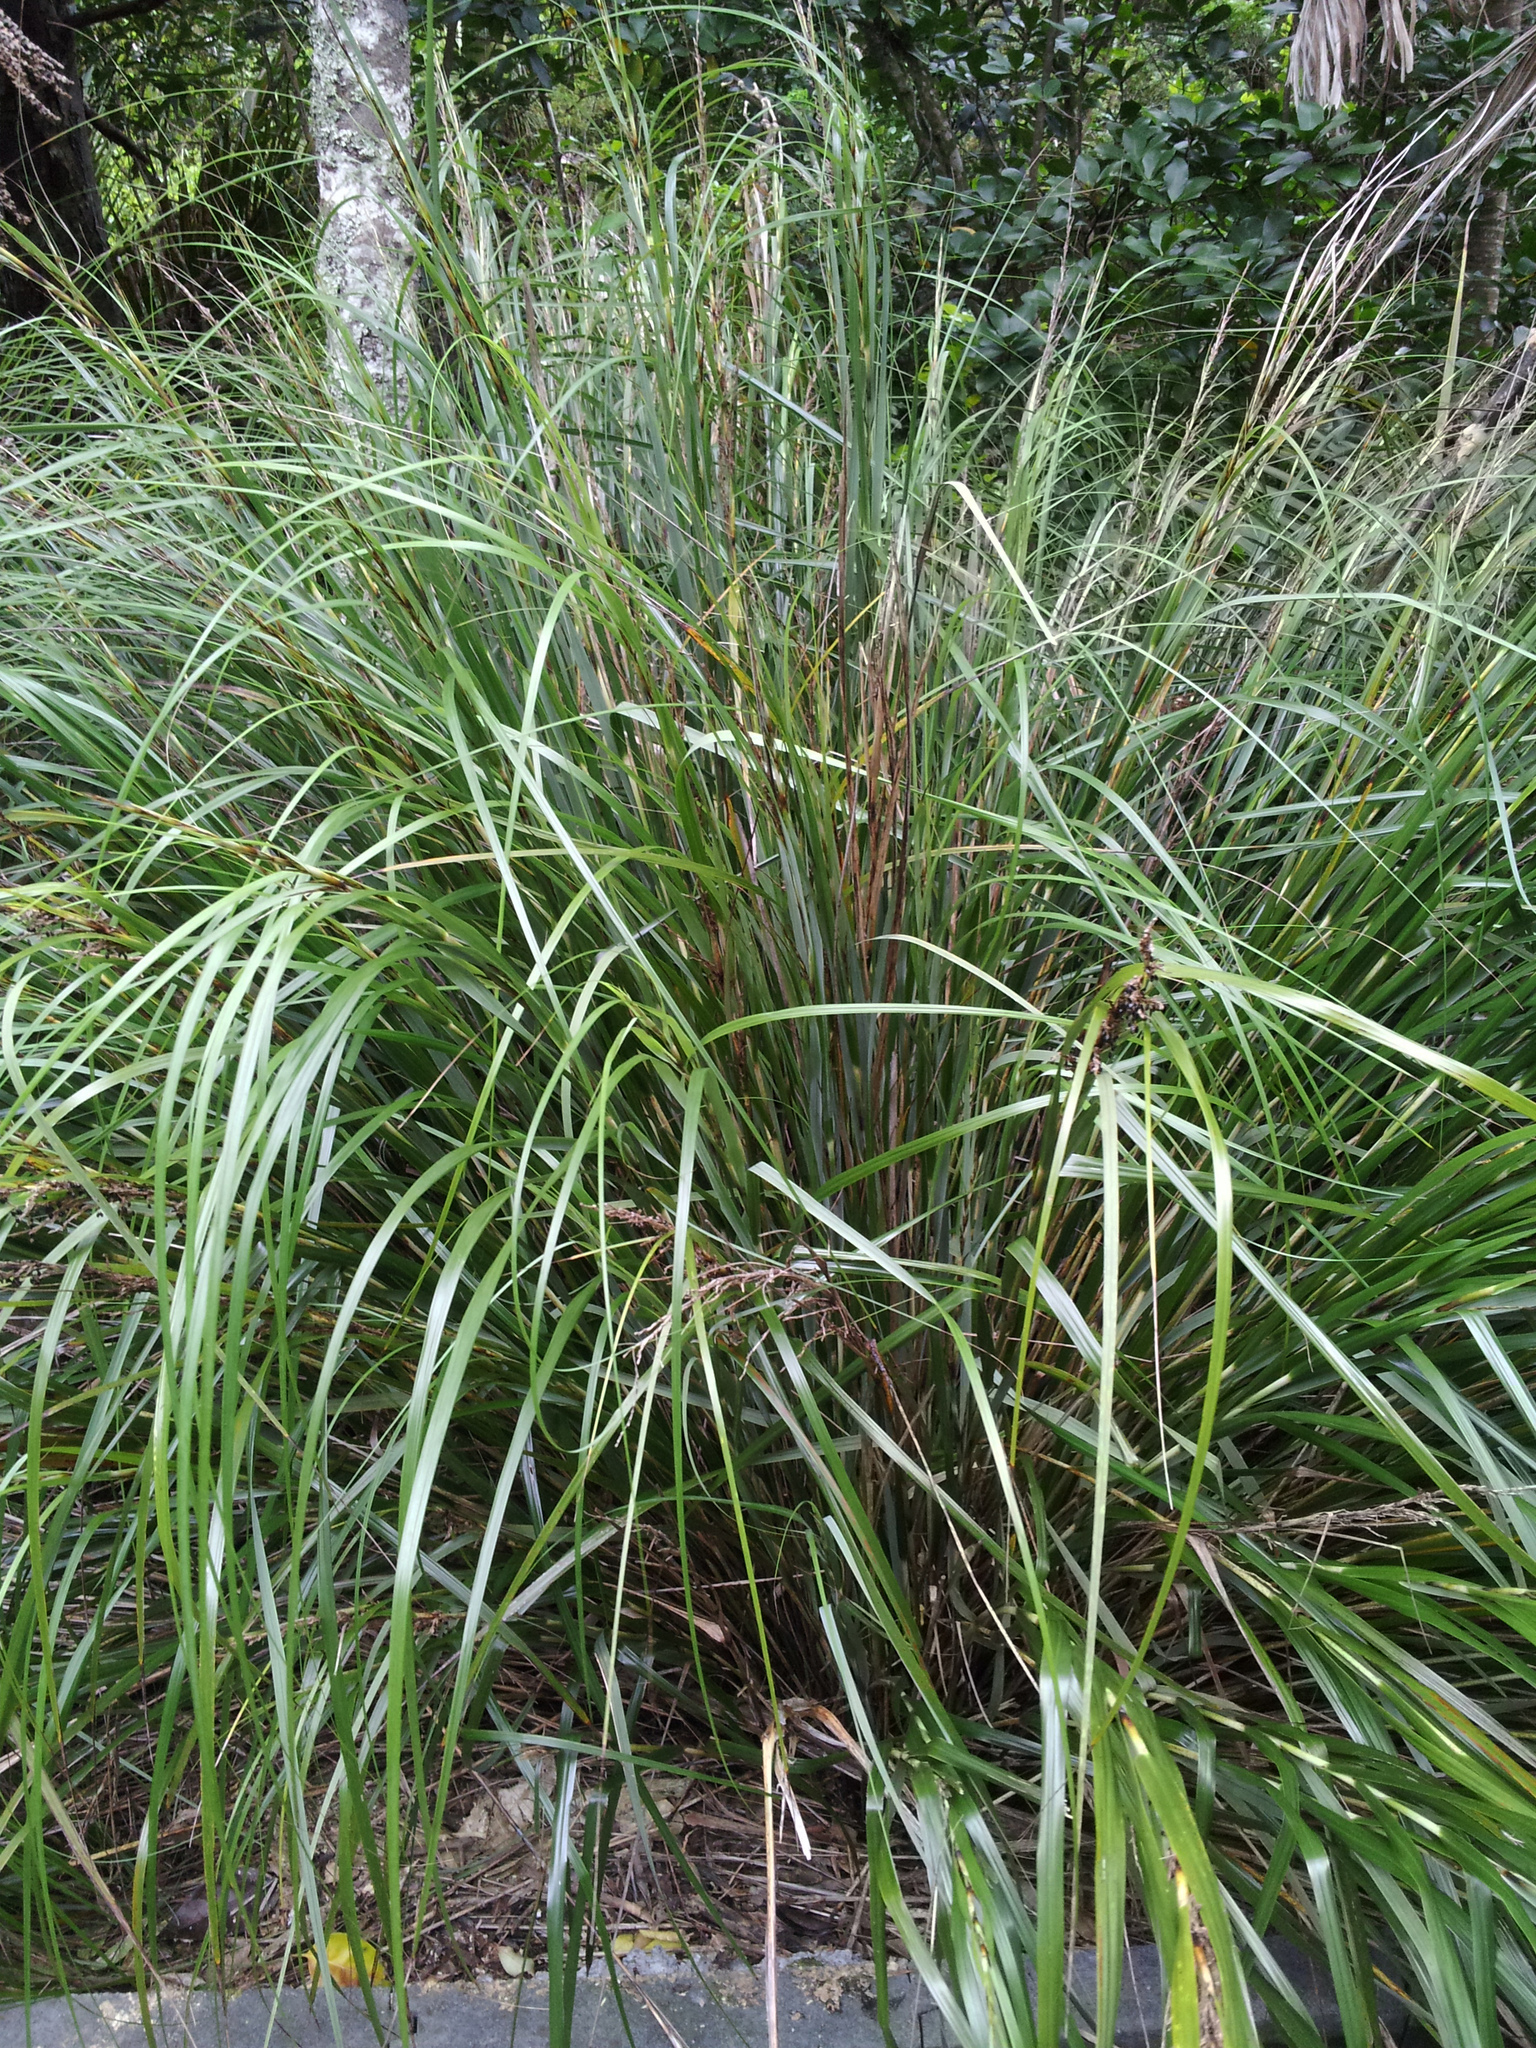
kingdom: Plantae
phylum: Tracheophyta
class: Liliopsida
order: Poales
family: Cyperaceae
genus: Gahnia
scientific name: Gahnia lacera
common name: Sawsedge
